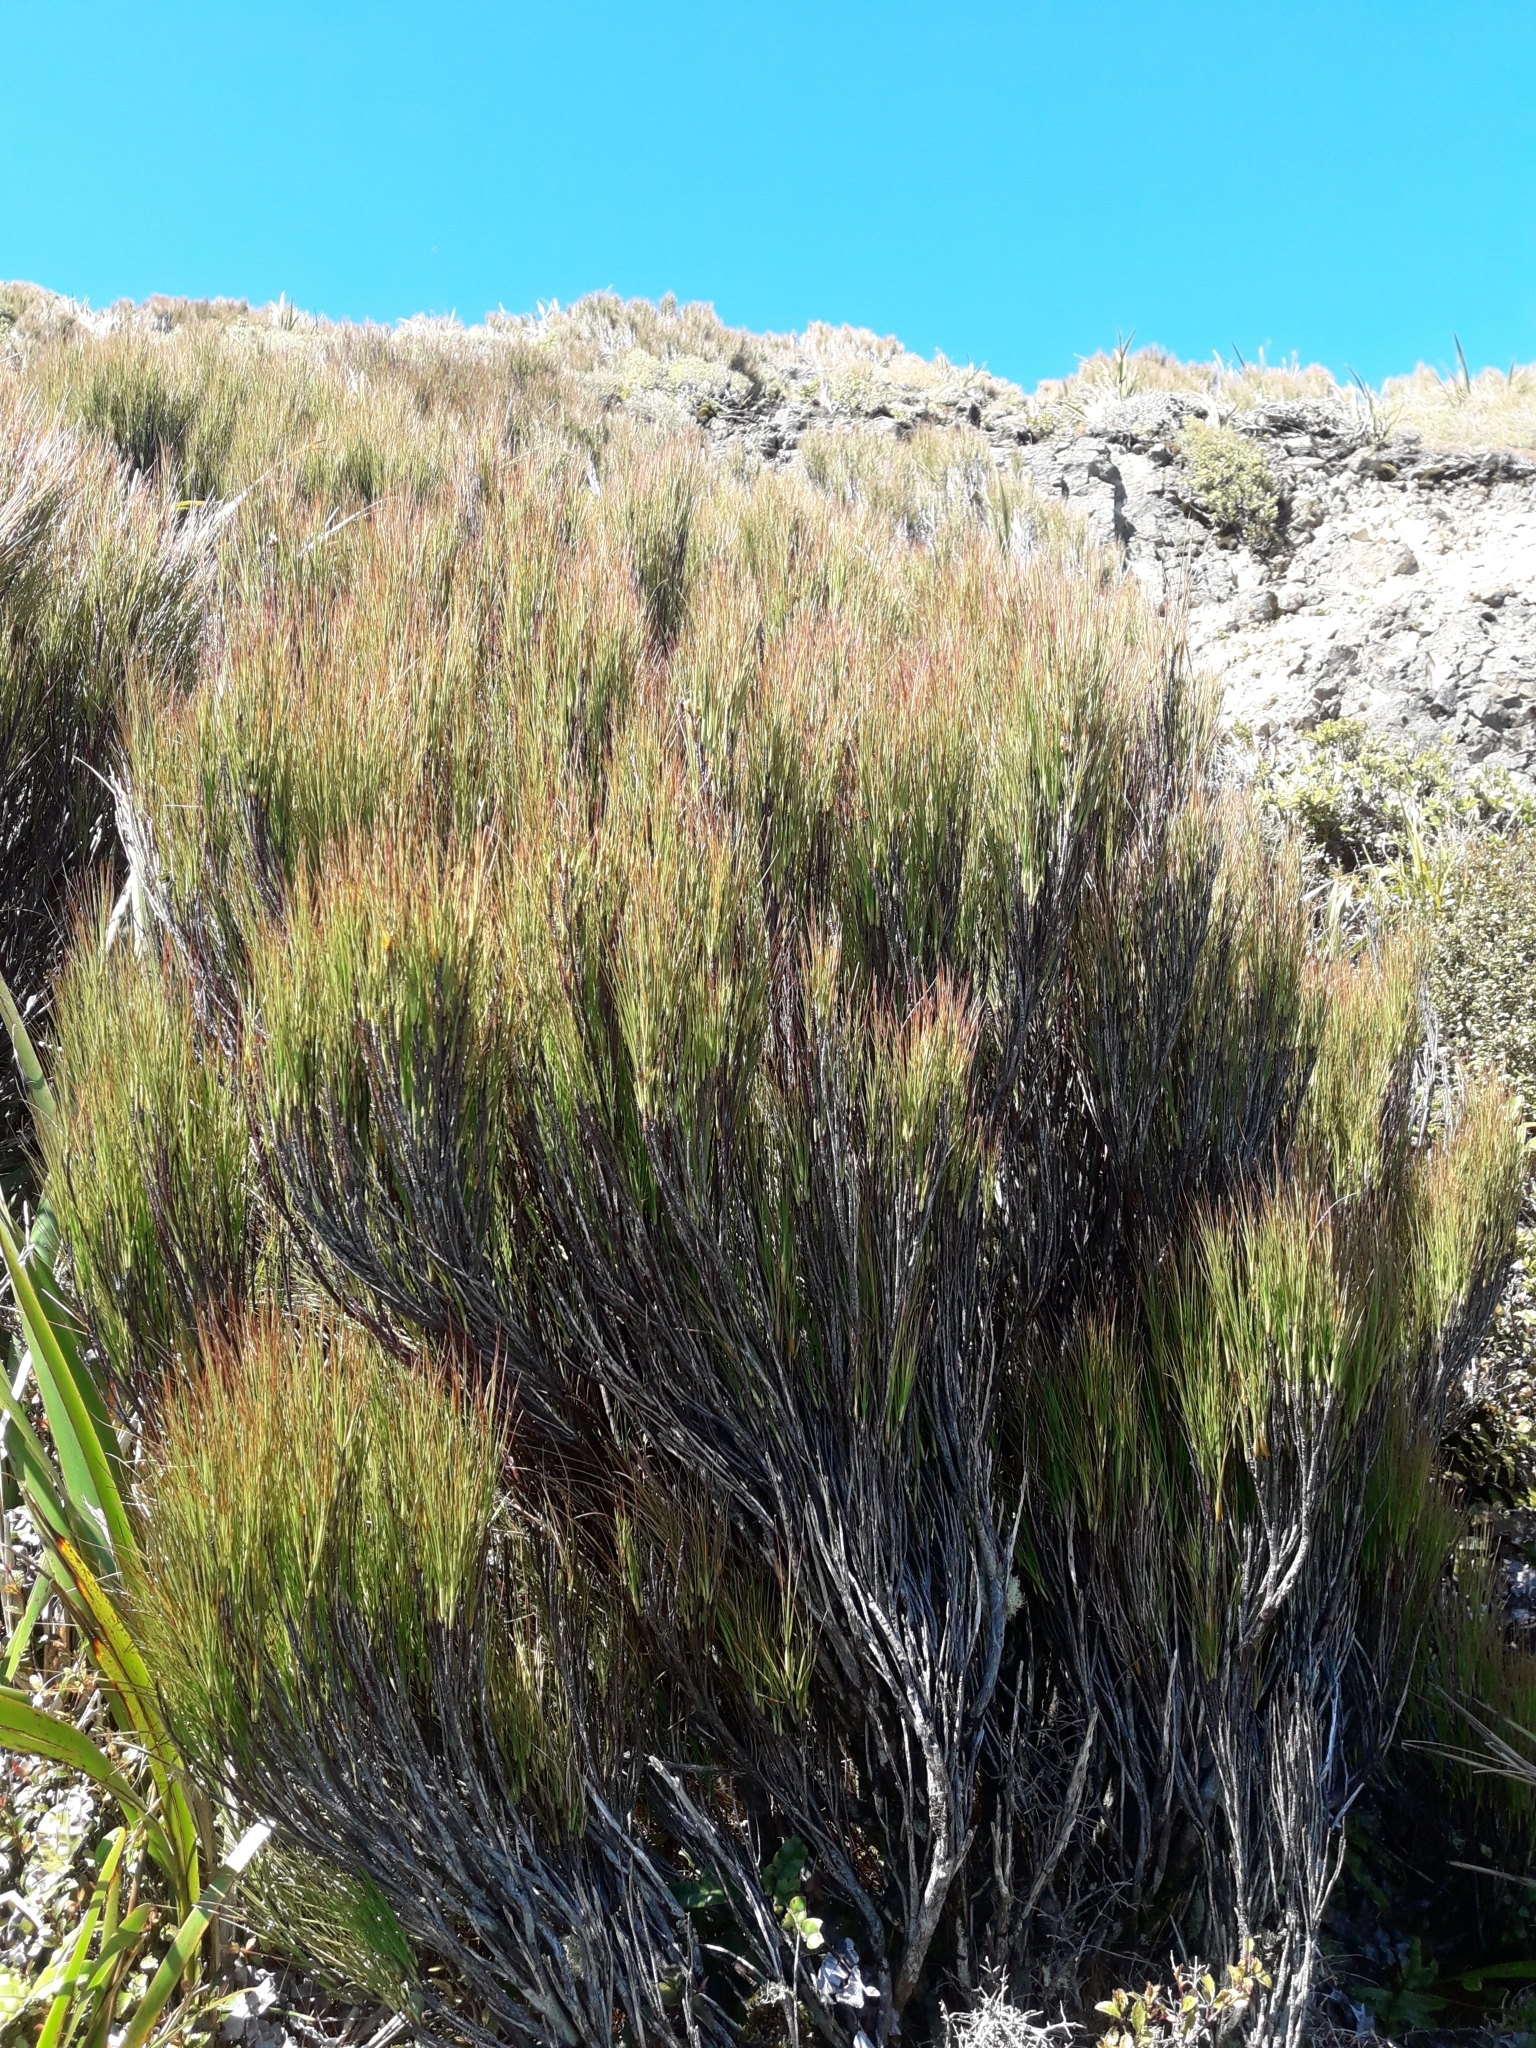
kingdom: Plantae
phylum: Tracheophyta
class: Magnoliopsida
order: Ericales
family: Ericaceae
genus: Dracophyllum
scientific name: Dracophyllum filifolium
